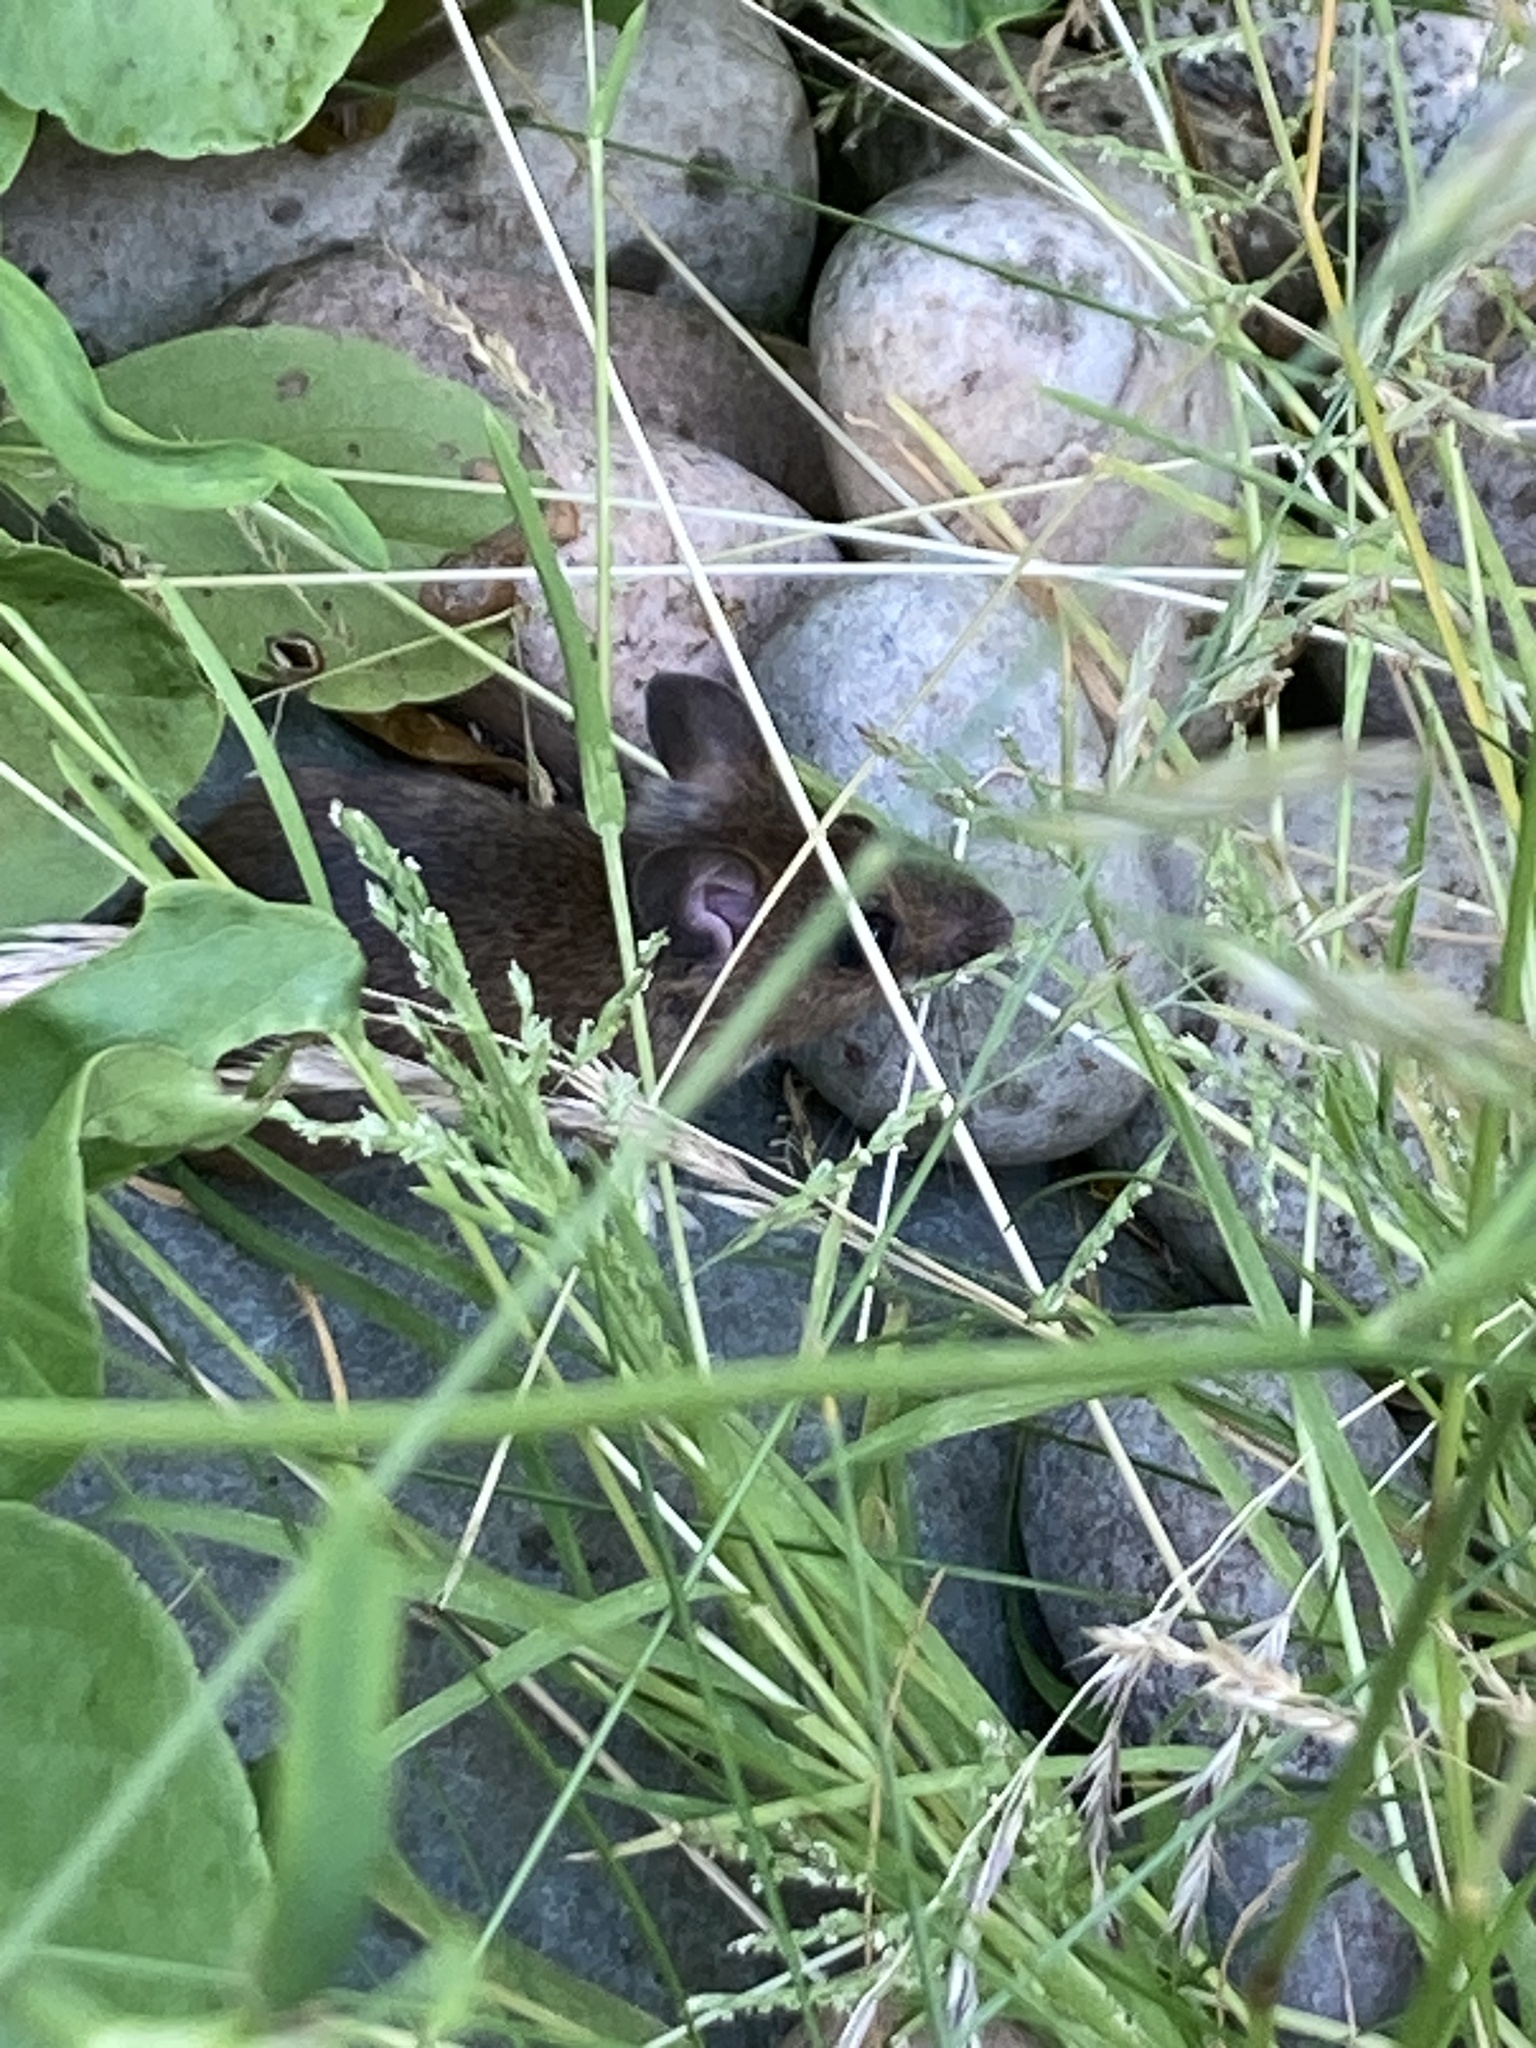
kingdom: Animalia
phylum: Chordata
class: Mammalia
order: Rodentia
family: Muridae
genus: Apodemus
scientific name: Apodemus sylvaticus
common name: Wood mouse
